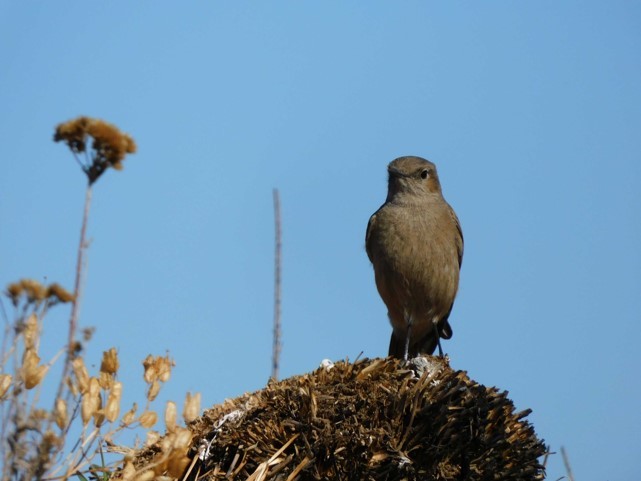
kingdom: Animalia
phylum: Chordata
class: Aves
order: Passeriformes
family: Muscicapidae
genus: Oenanthe
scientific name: Oenanthe familiaris
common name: Familiar chat
